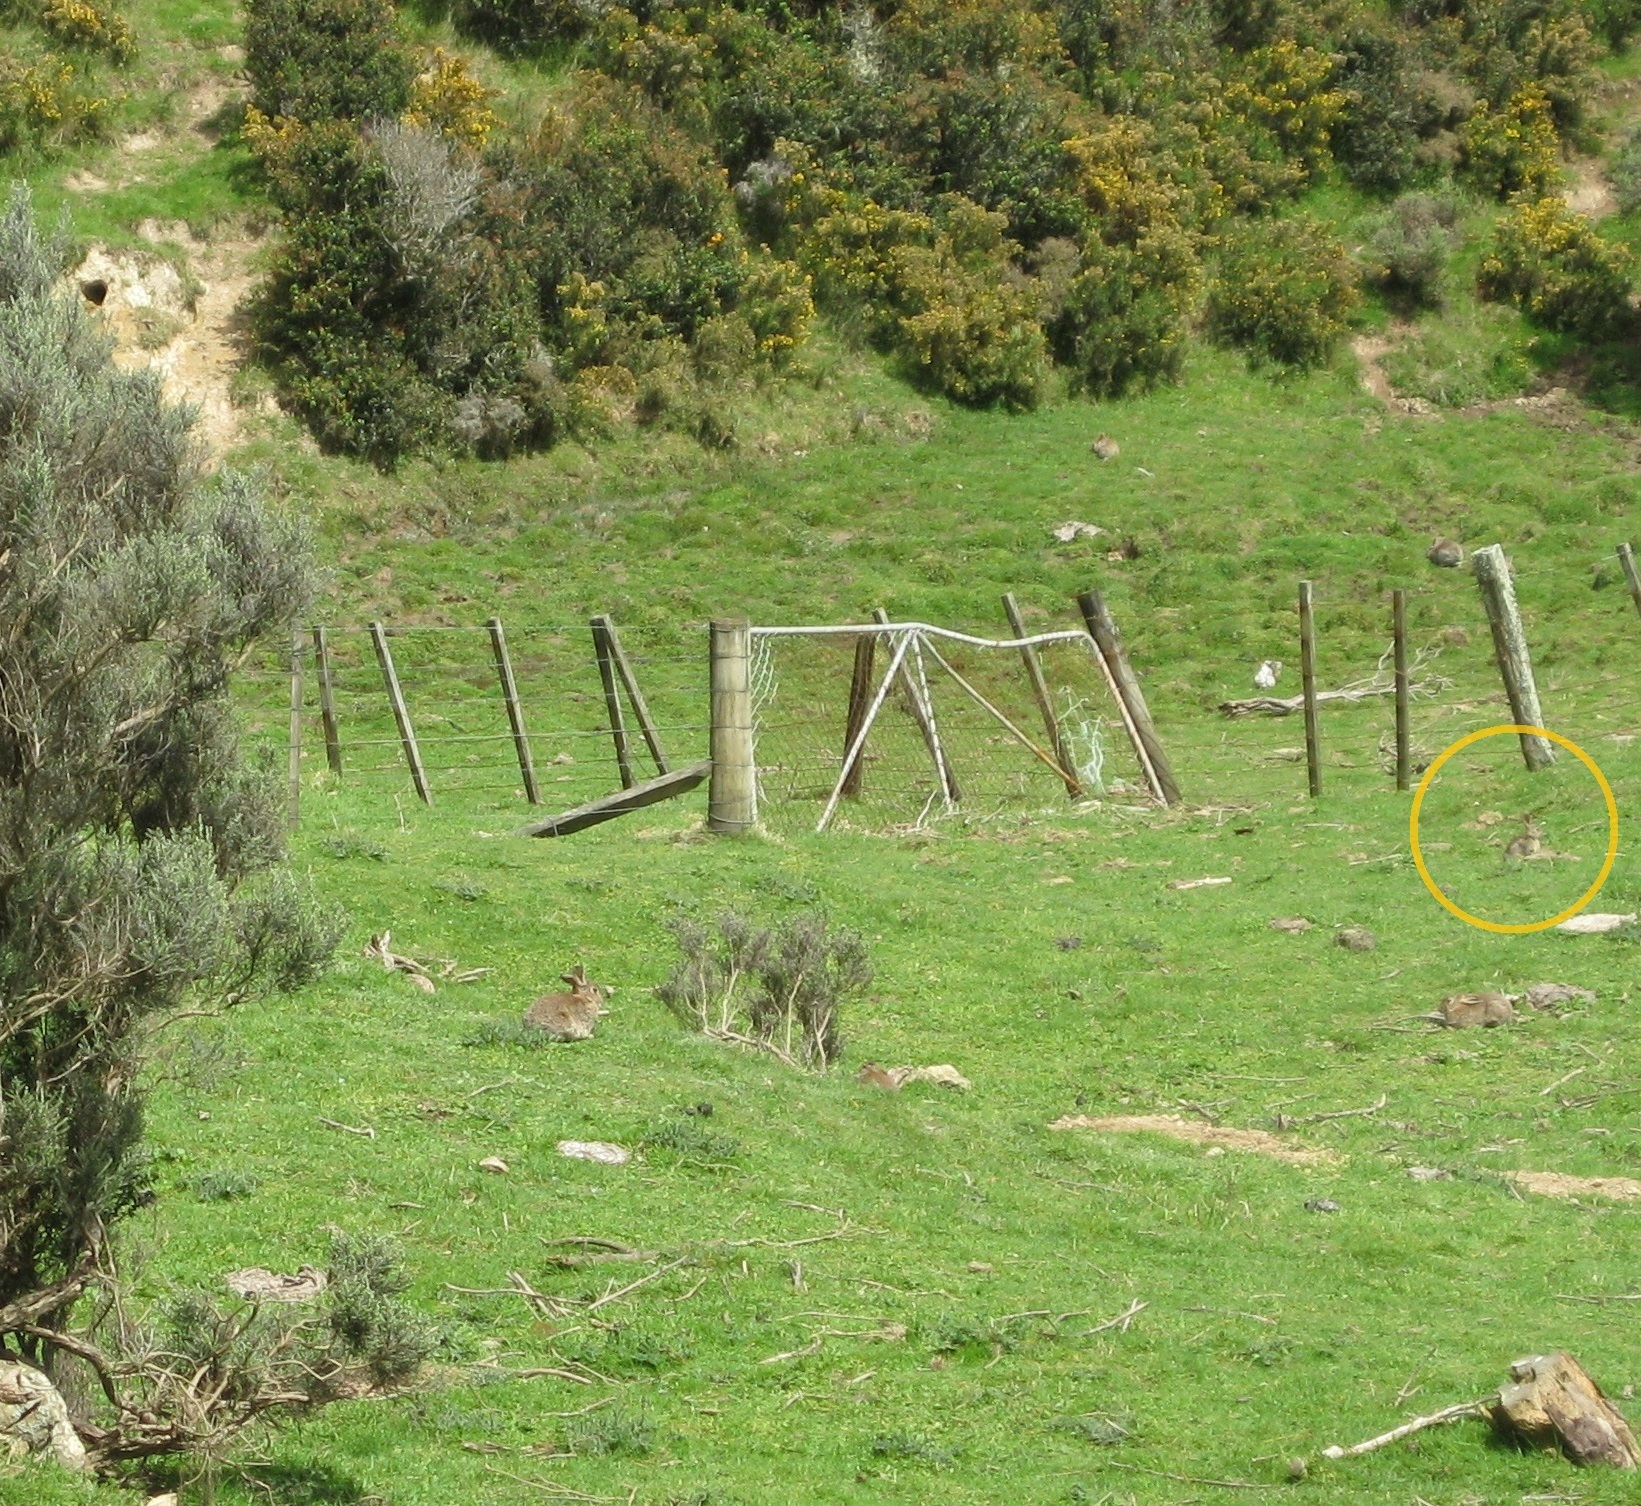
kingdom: Animalia
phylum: Chordata
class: Mammalia
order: Lagomorpha
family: Leporidae
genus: Oryctolagus
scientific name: Oryctolagus cuniculus
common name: European rabbit
